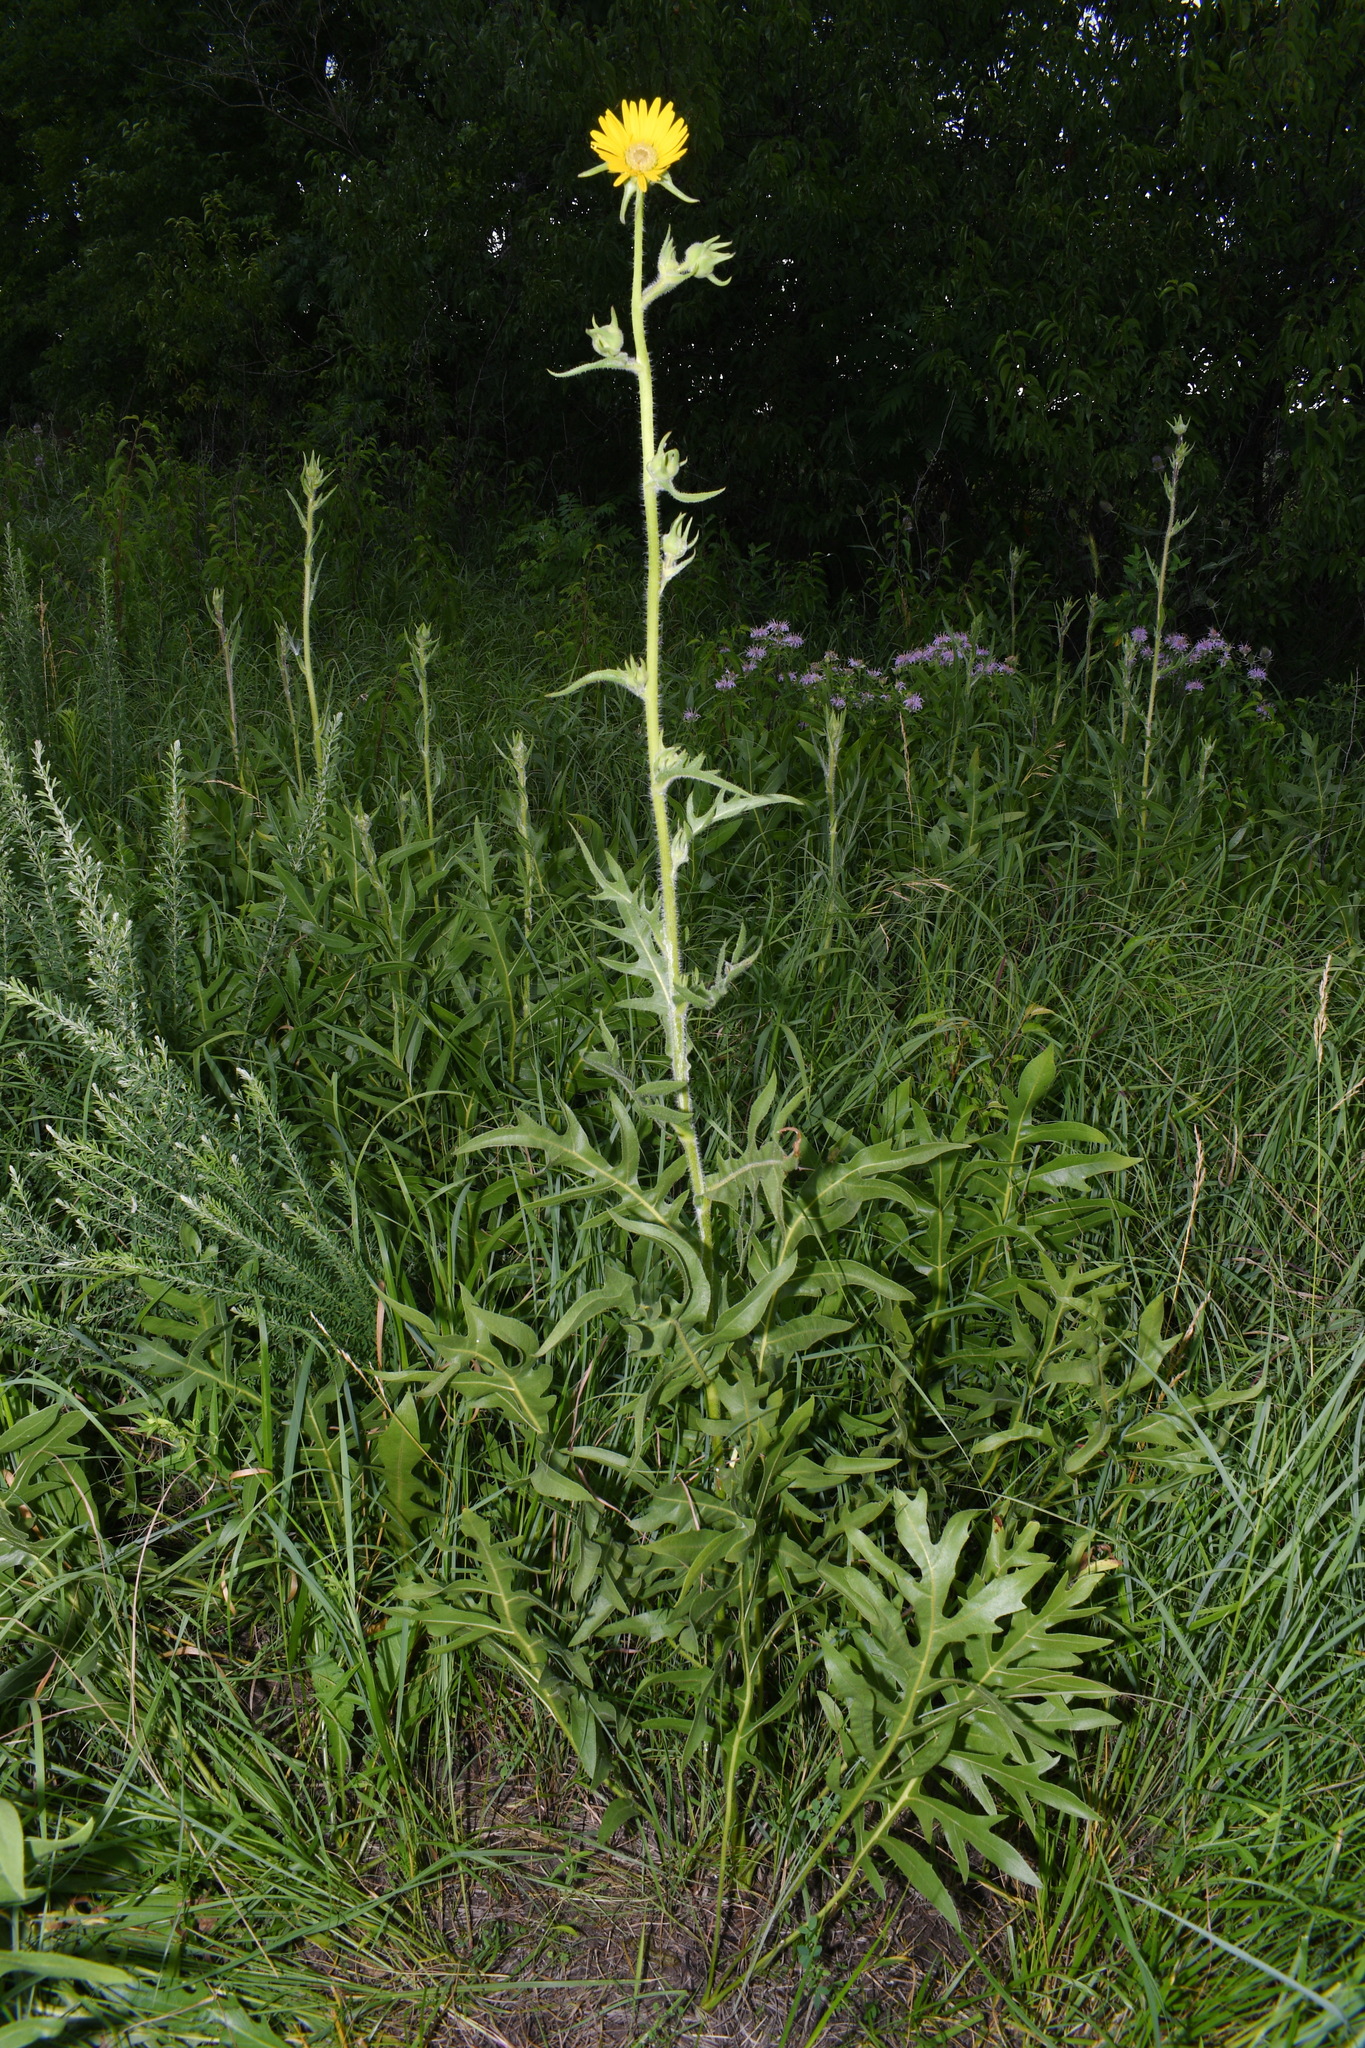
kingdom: Plantae
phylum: Tracheophyta
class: Magnoliopsida
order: Asterales
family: Asteraceae
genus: Silphium
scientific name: Silphium laciniatum
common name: Polarplant
